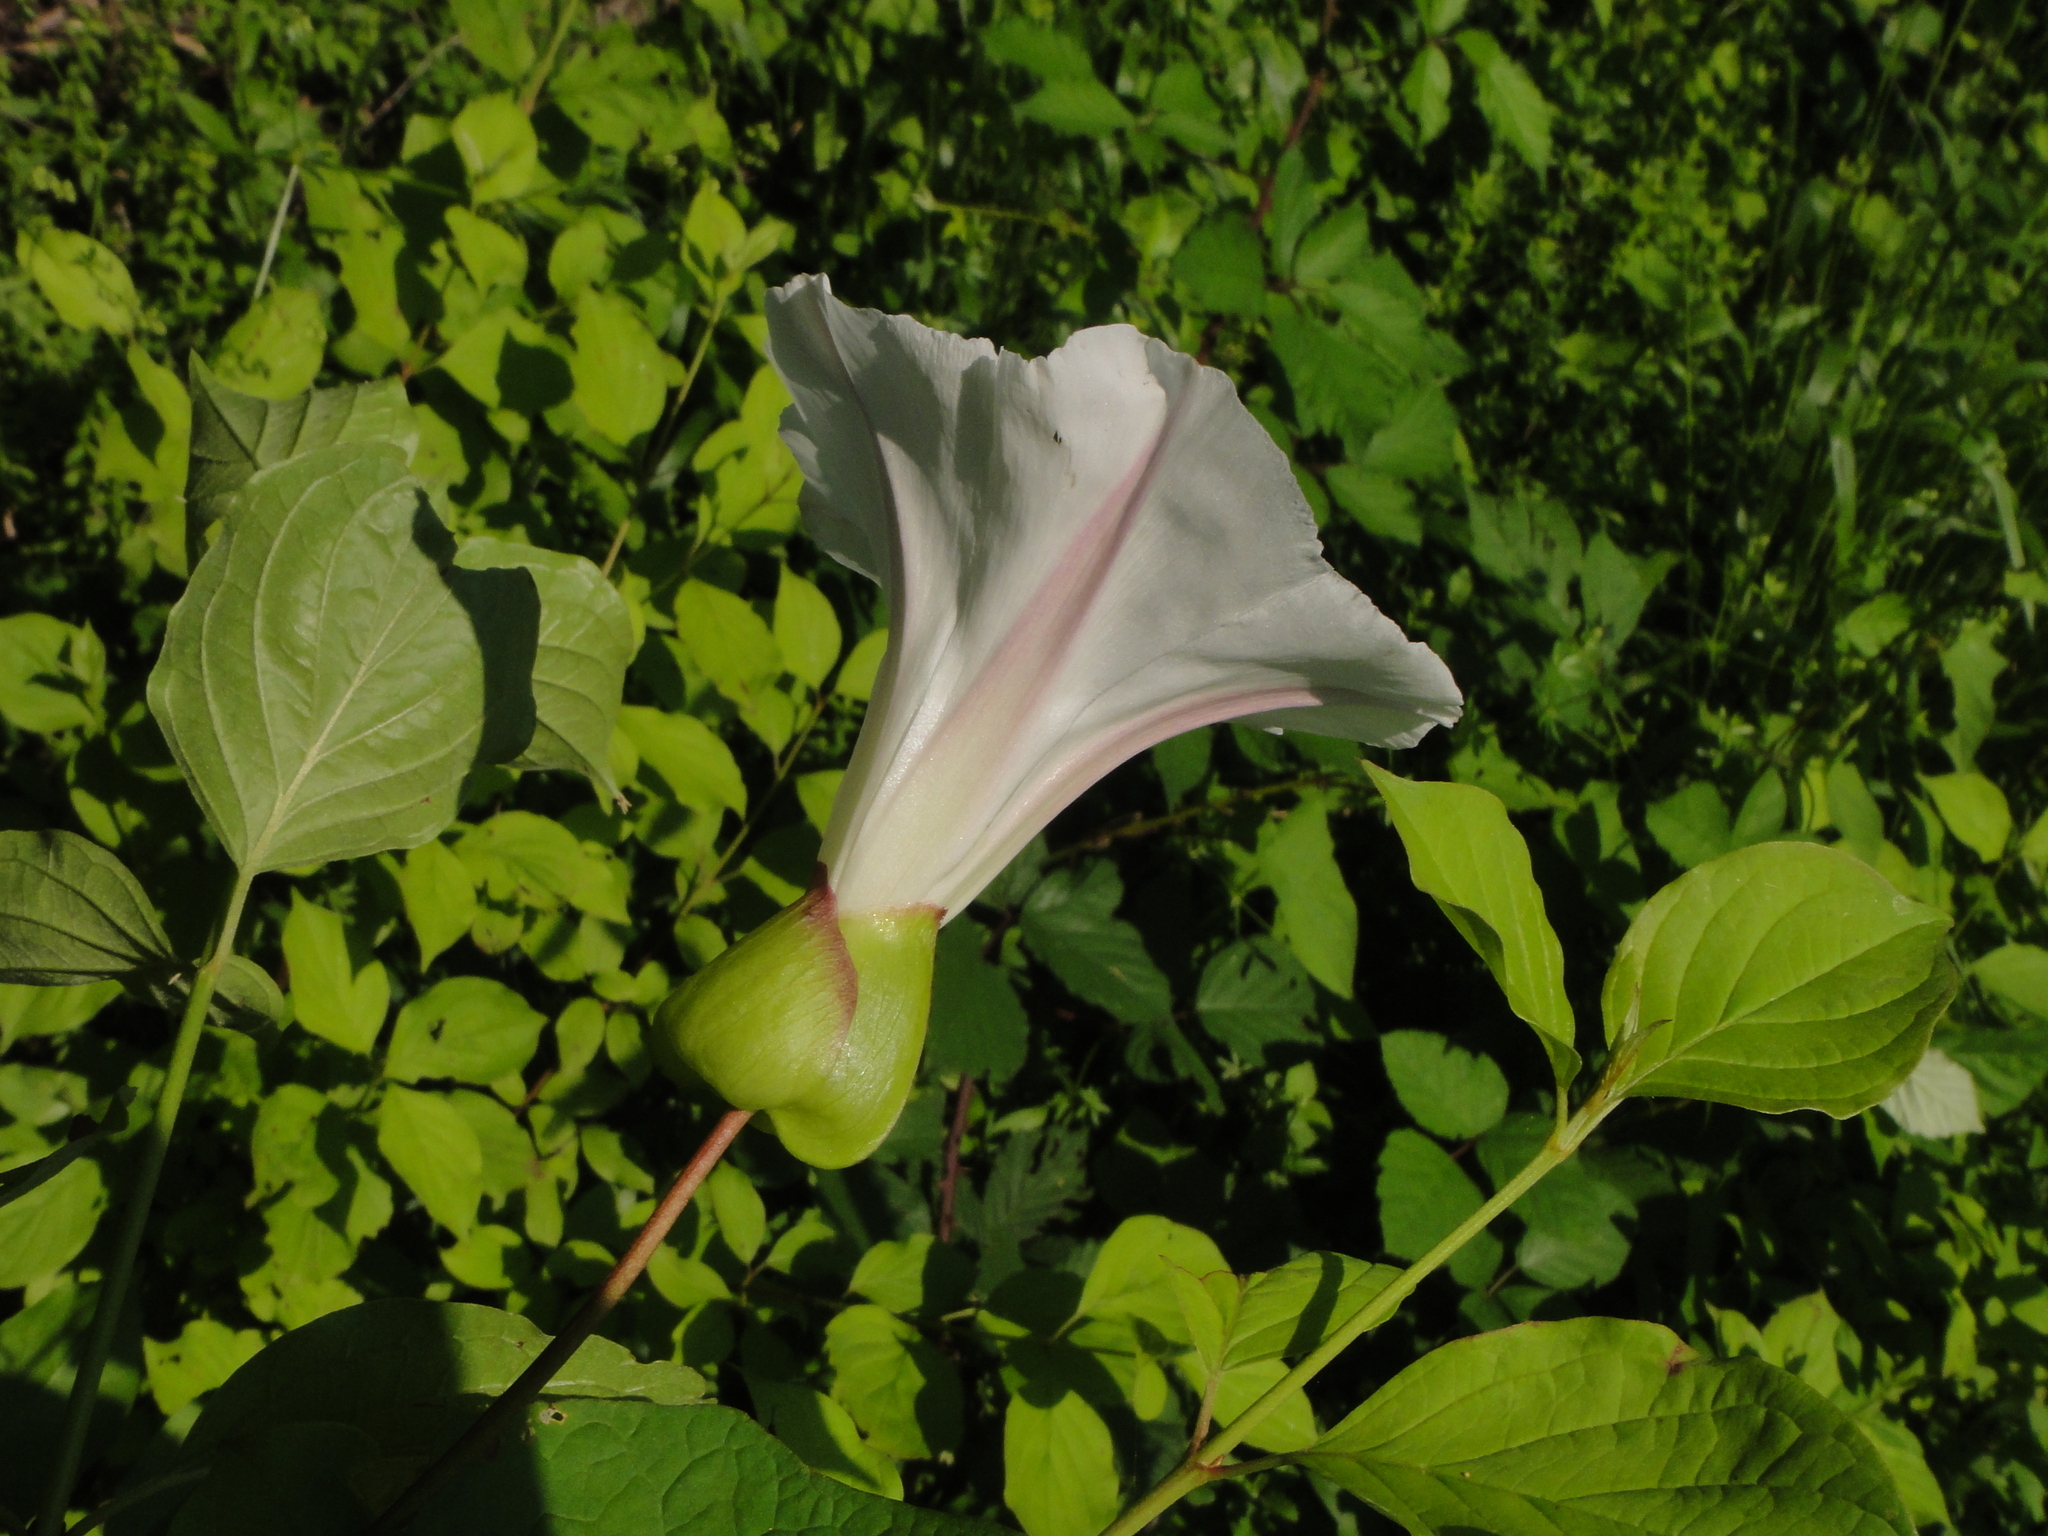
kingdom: Plantae
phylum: Tracheophyta
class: Magnoliopsida
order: Solanales
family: Convolvulaceae
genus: Calystegia
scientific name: Calystegia silvatica
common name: Large bindweed
